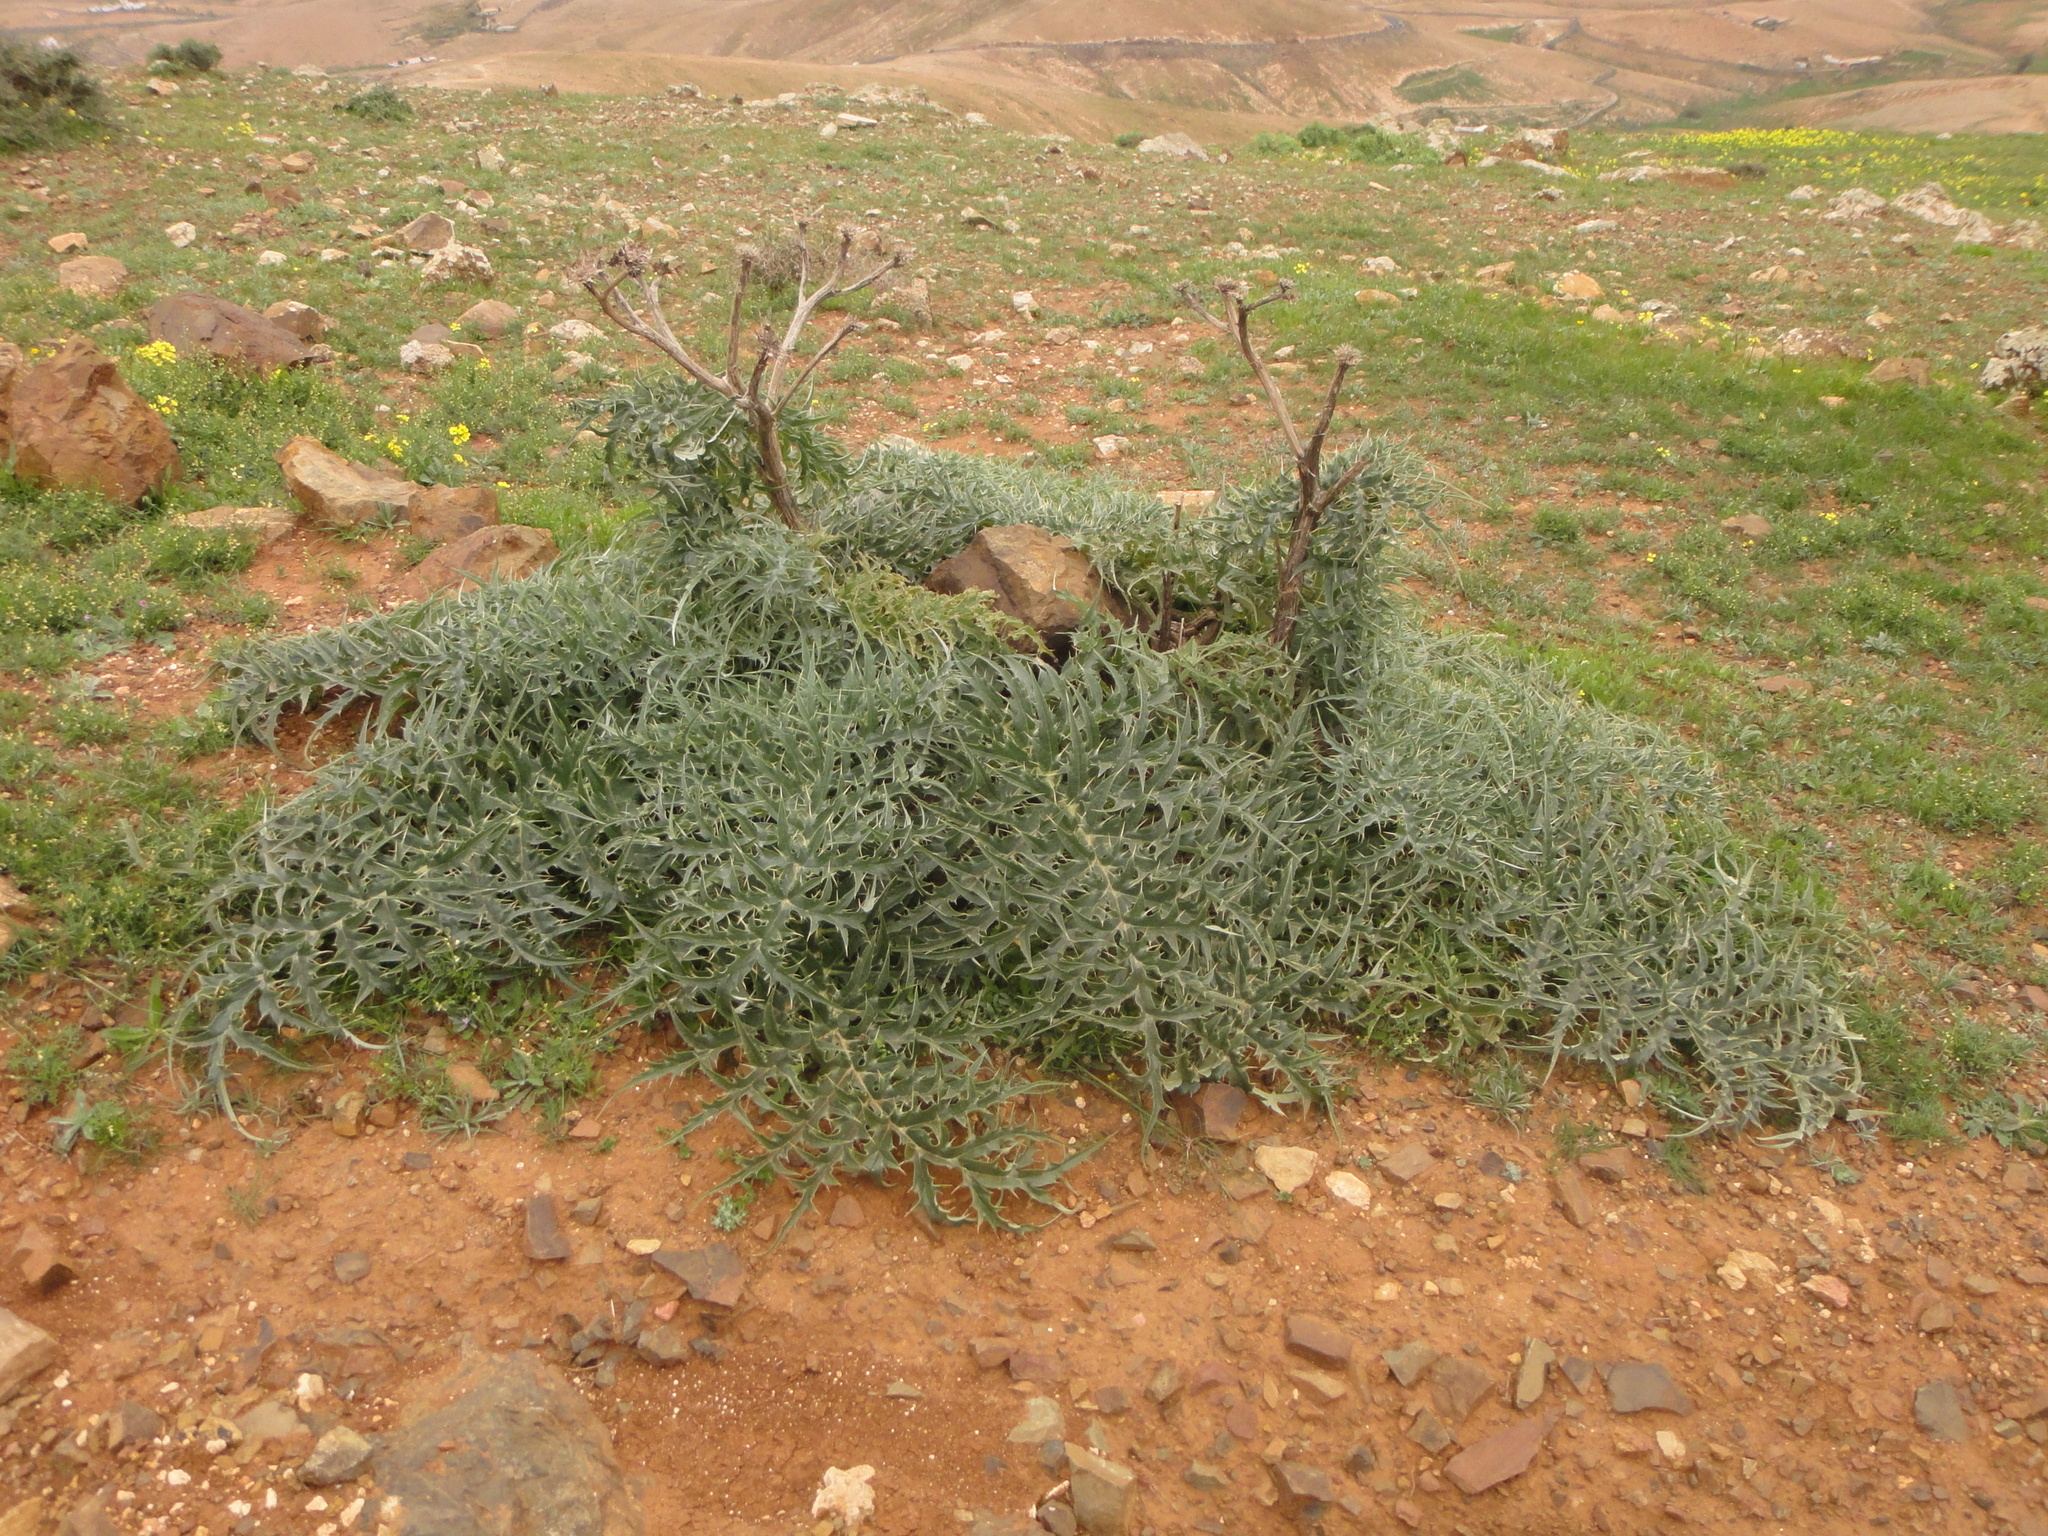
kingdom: Plantae
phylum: Tracheophyta
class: Magnoliopsida
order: Asterales
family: Asteraceae
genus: Cynara
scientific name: Cynara cardunculus
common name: Globe artichoke
